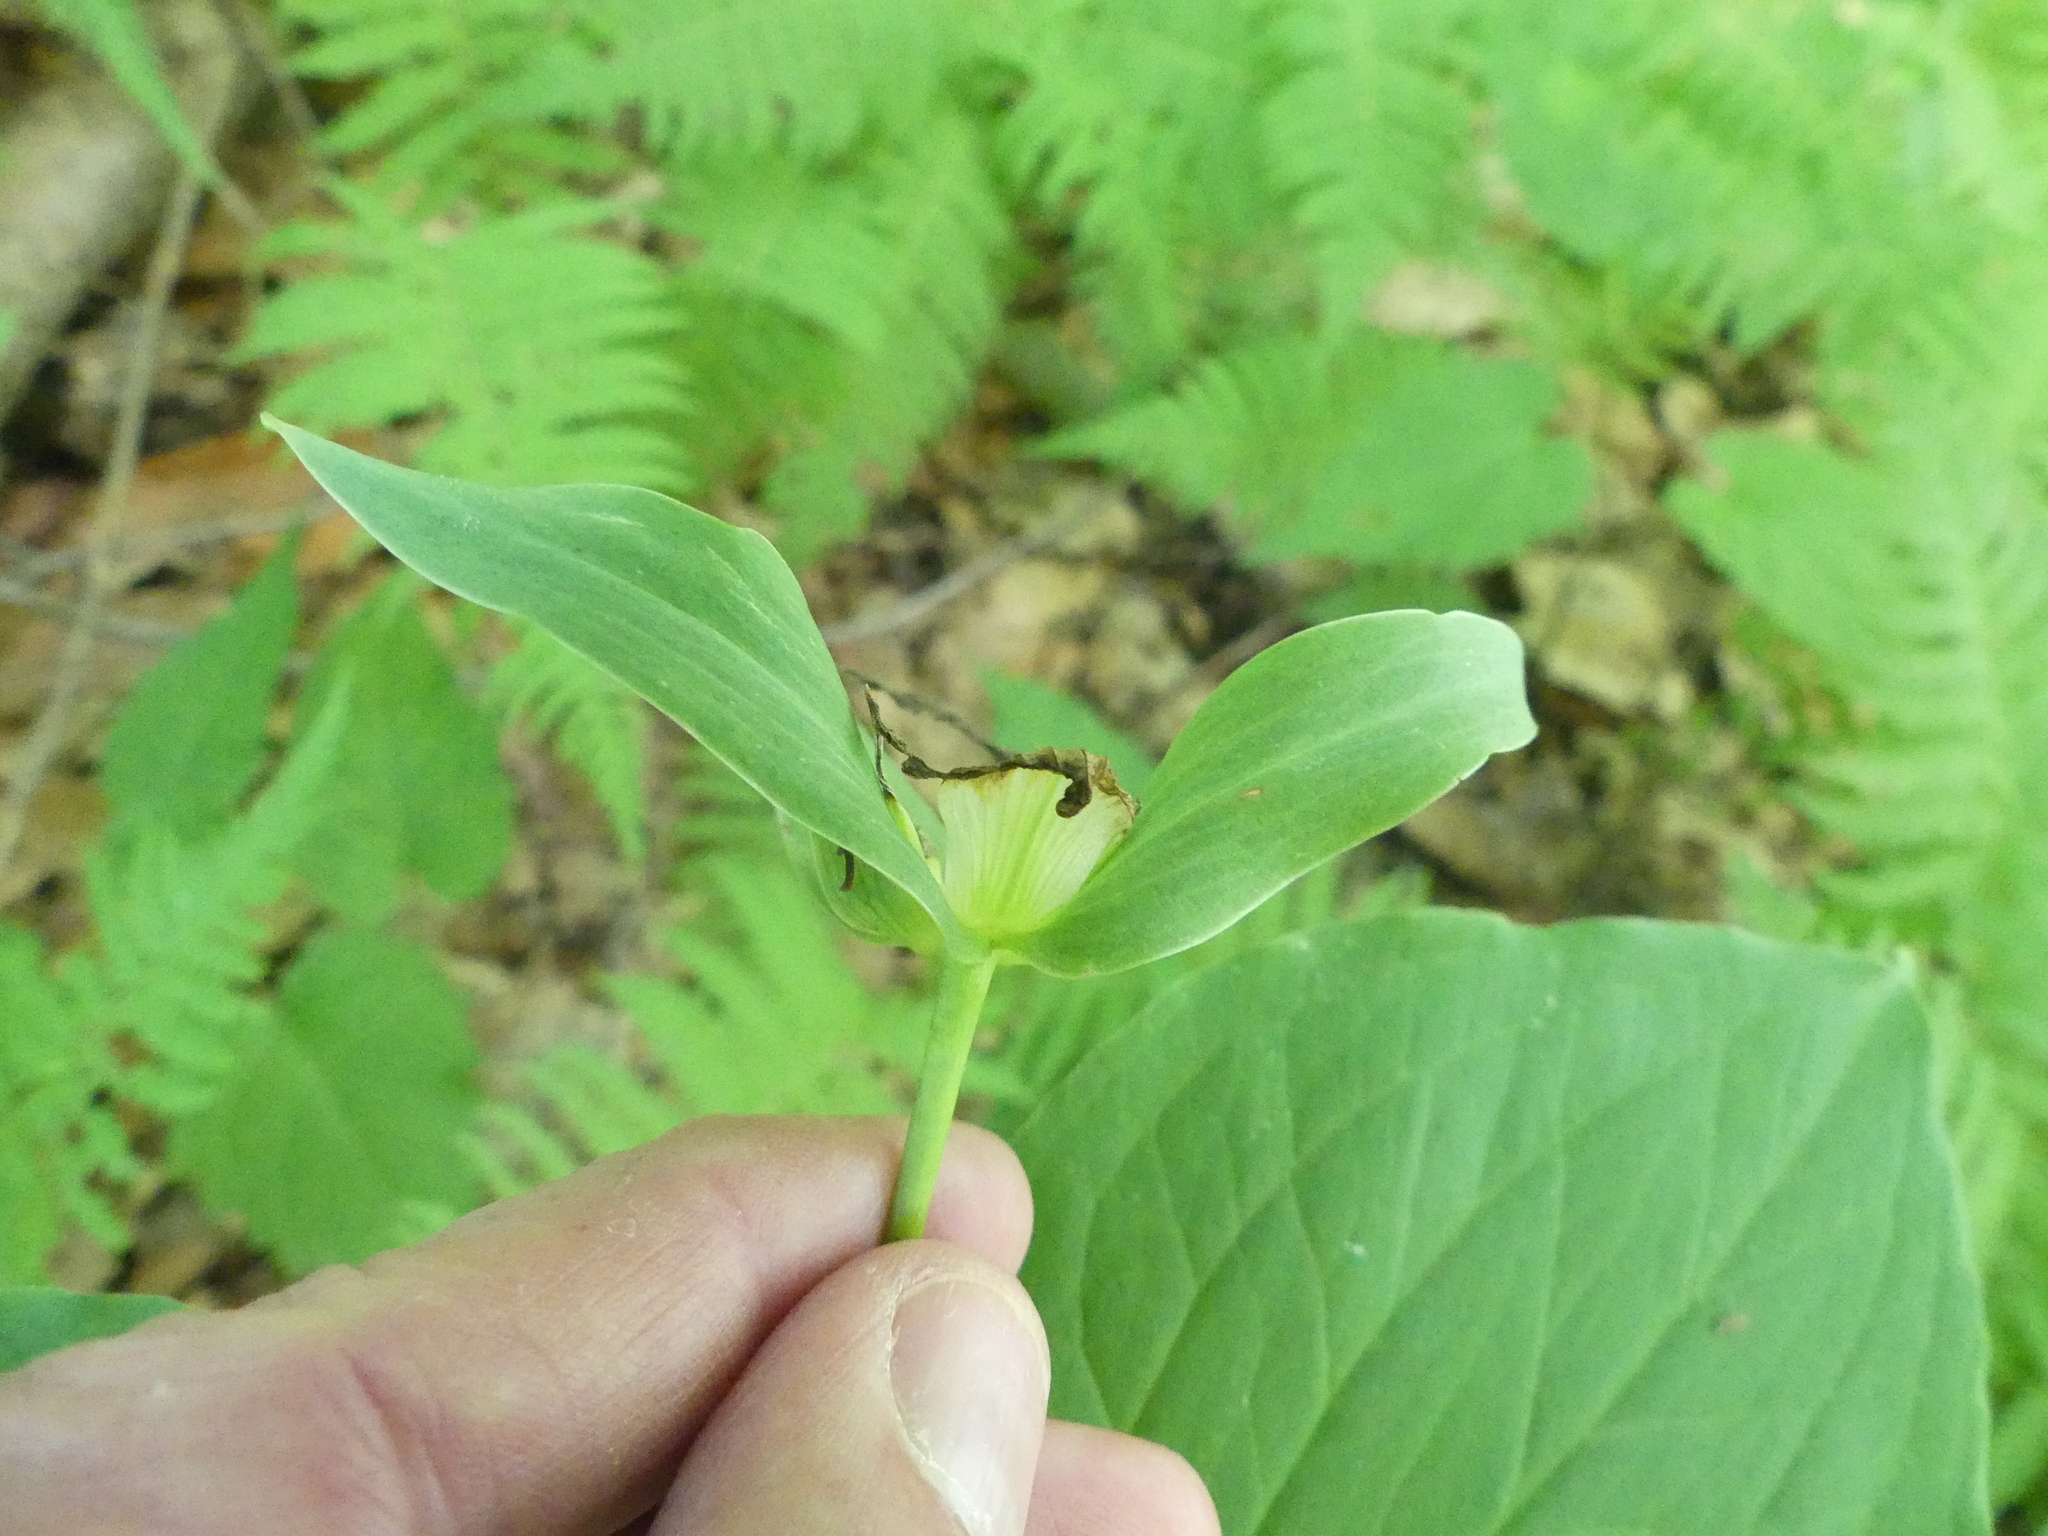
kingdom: Plantae
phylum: Tracheophyta
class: Liliopsida
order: Liliales
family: Melanthiaceae
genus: Trillium
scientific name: Trillium grandiflorum
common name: Great white trillium
